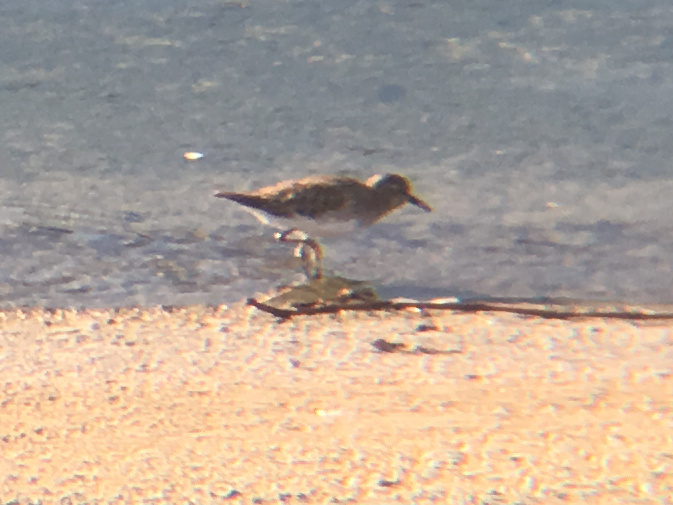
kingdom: Animalia
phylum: Chordata
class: Aves
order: Charadriiformes
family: Scolopacidae
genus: Calidris
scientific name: Calidris minutilla
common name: Least sandpiper
